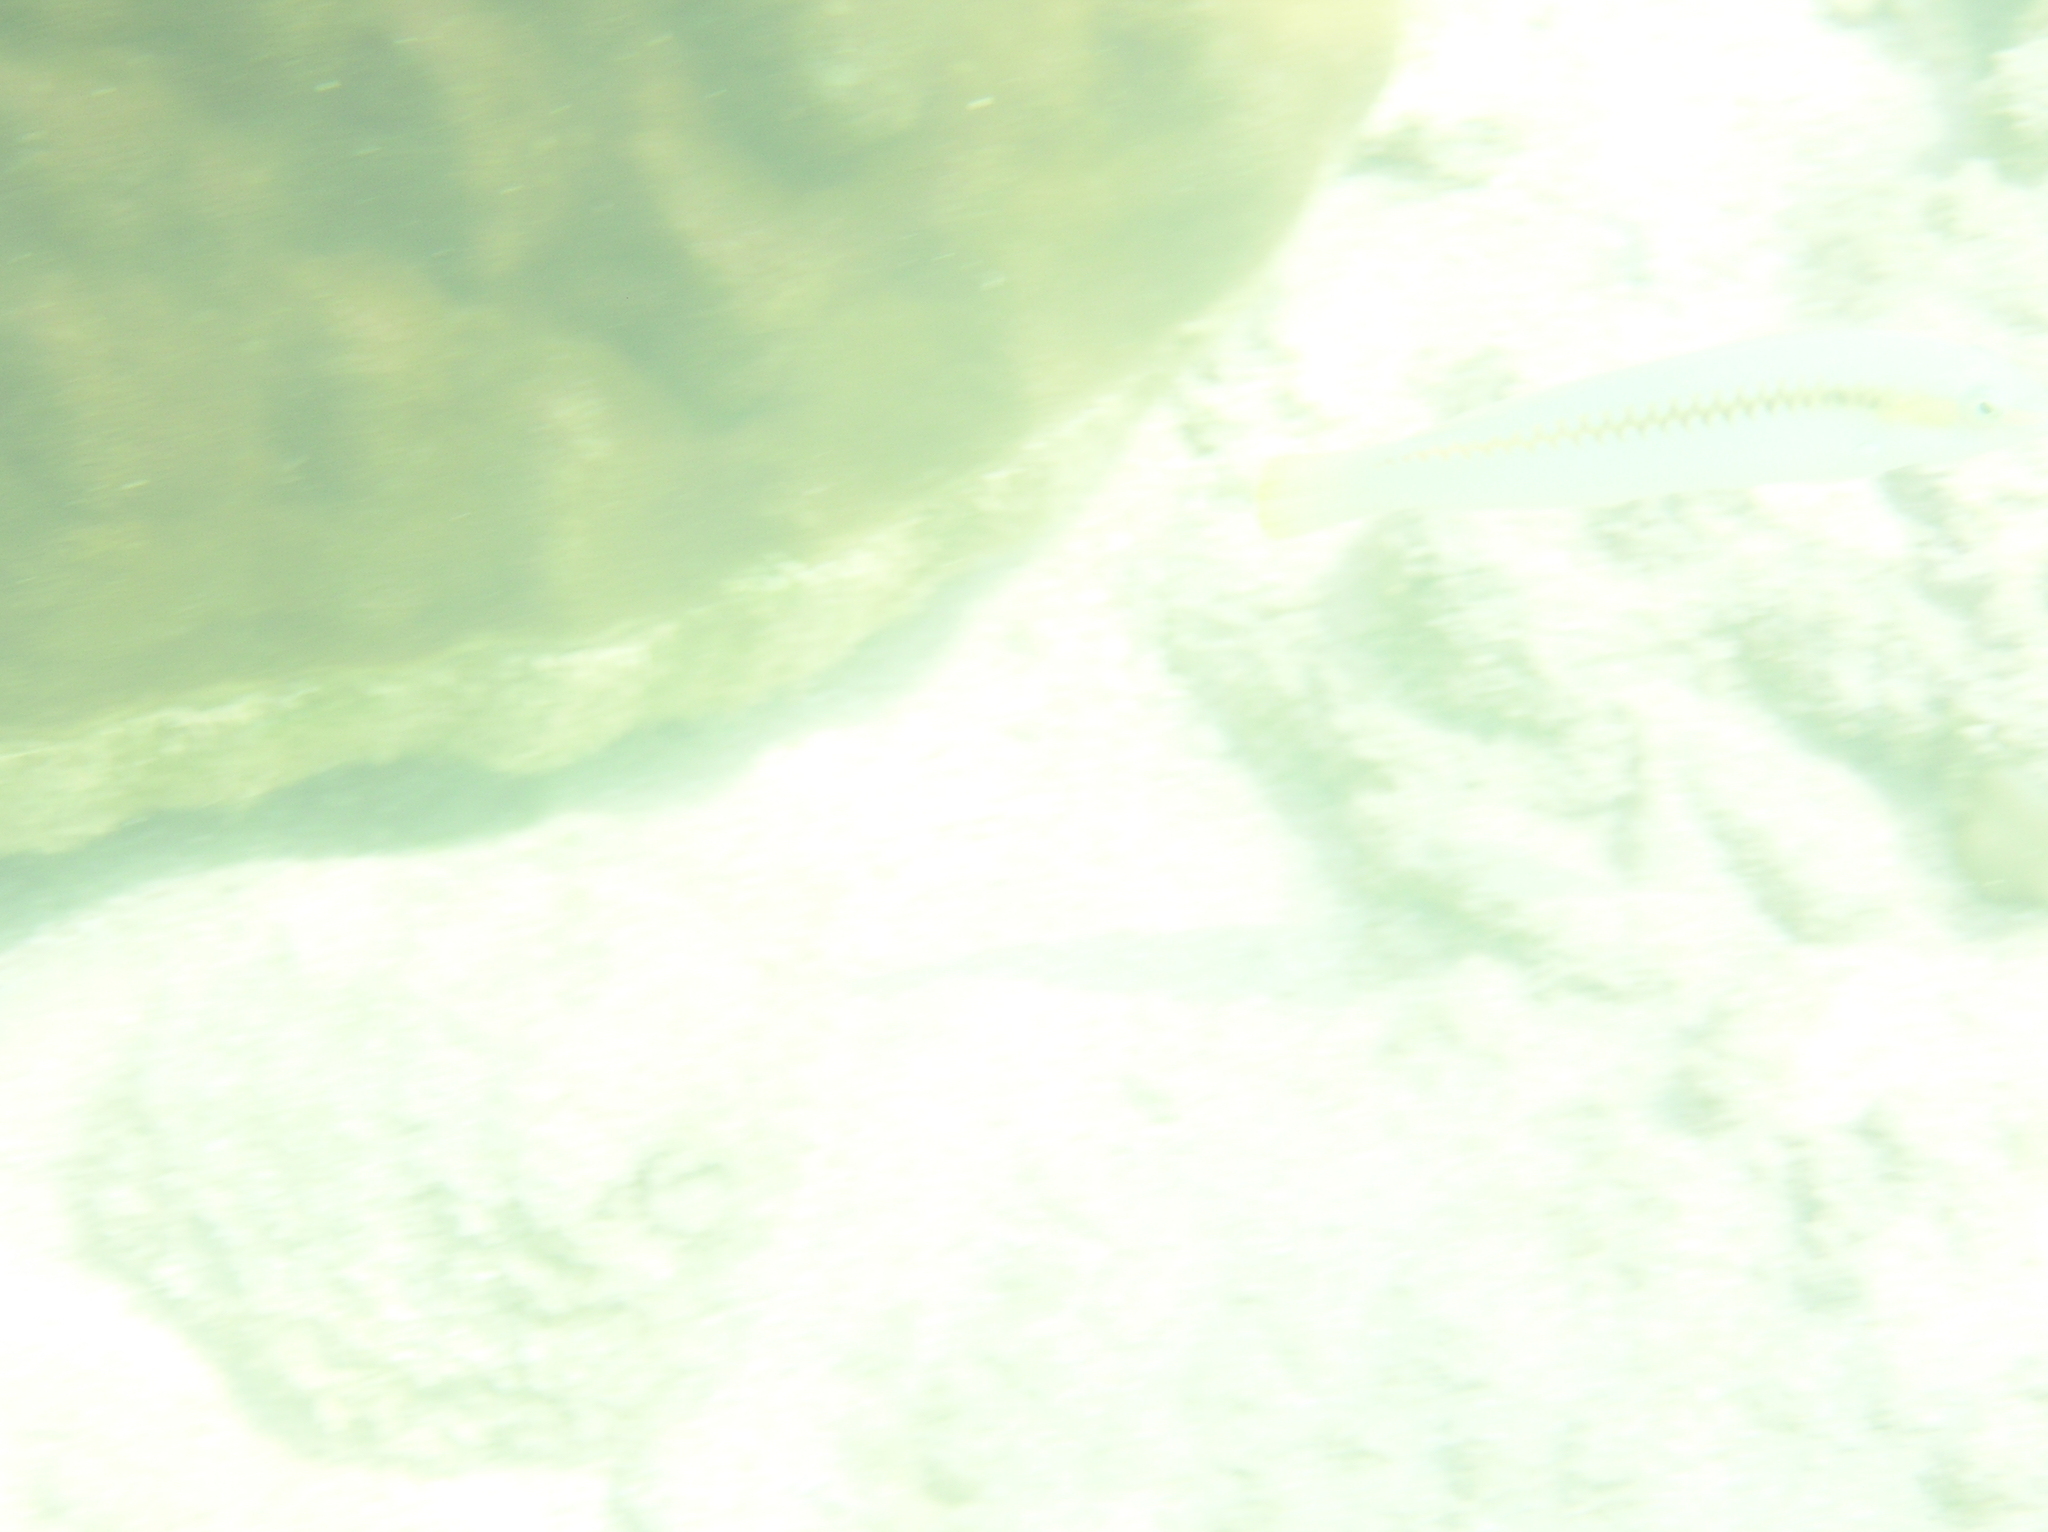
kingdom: Animalia
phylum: Chordata
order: Perciformes
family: Labridae
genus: Halichoeres
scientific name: Halichoeres scapularis
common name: Brownbanded wrasse
